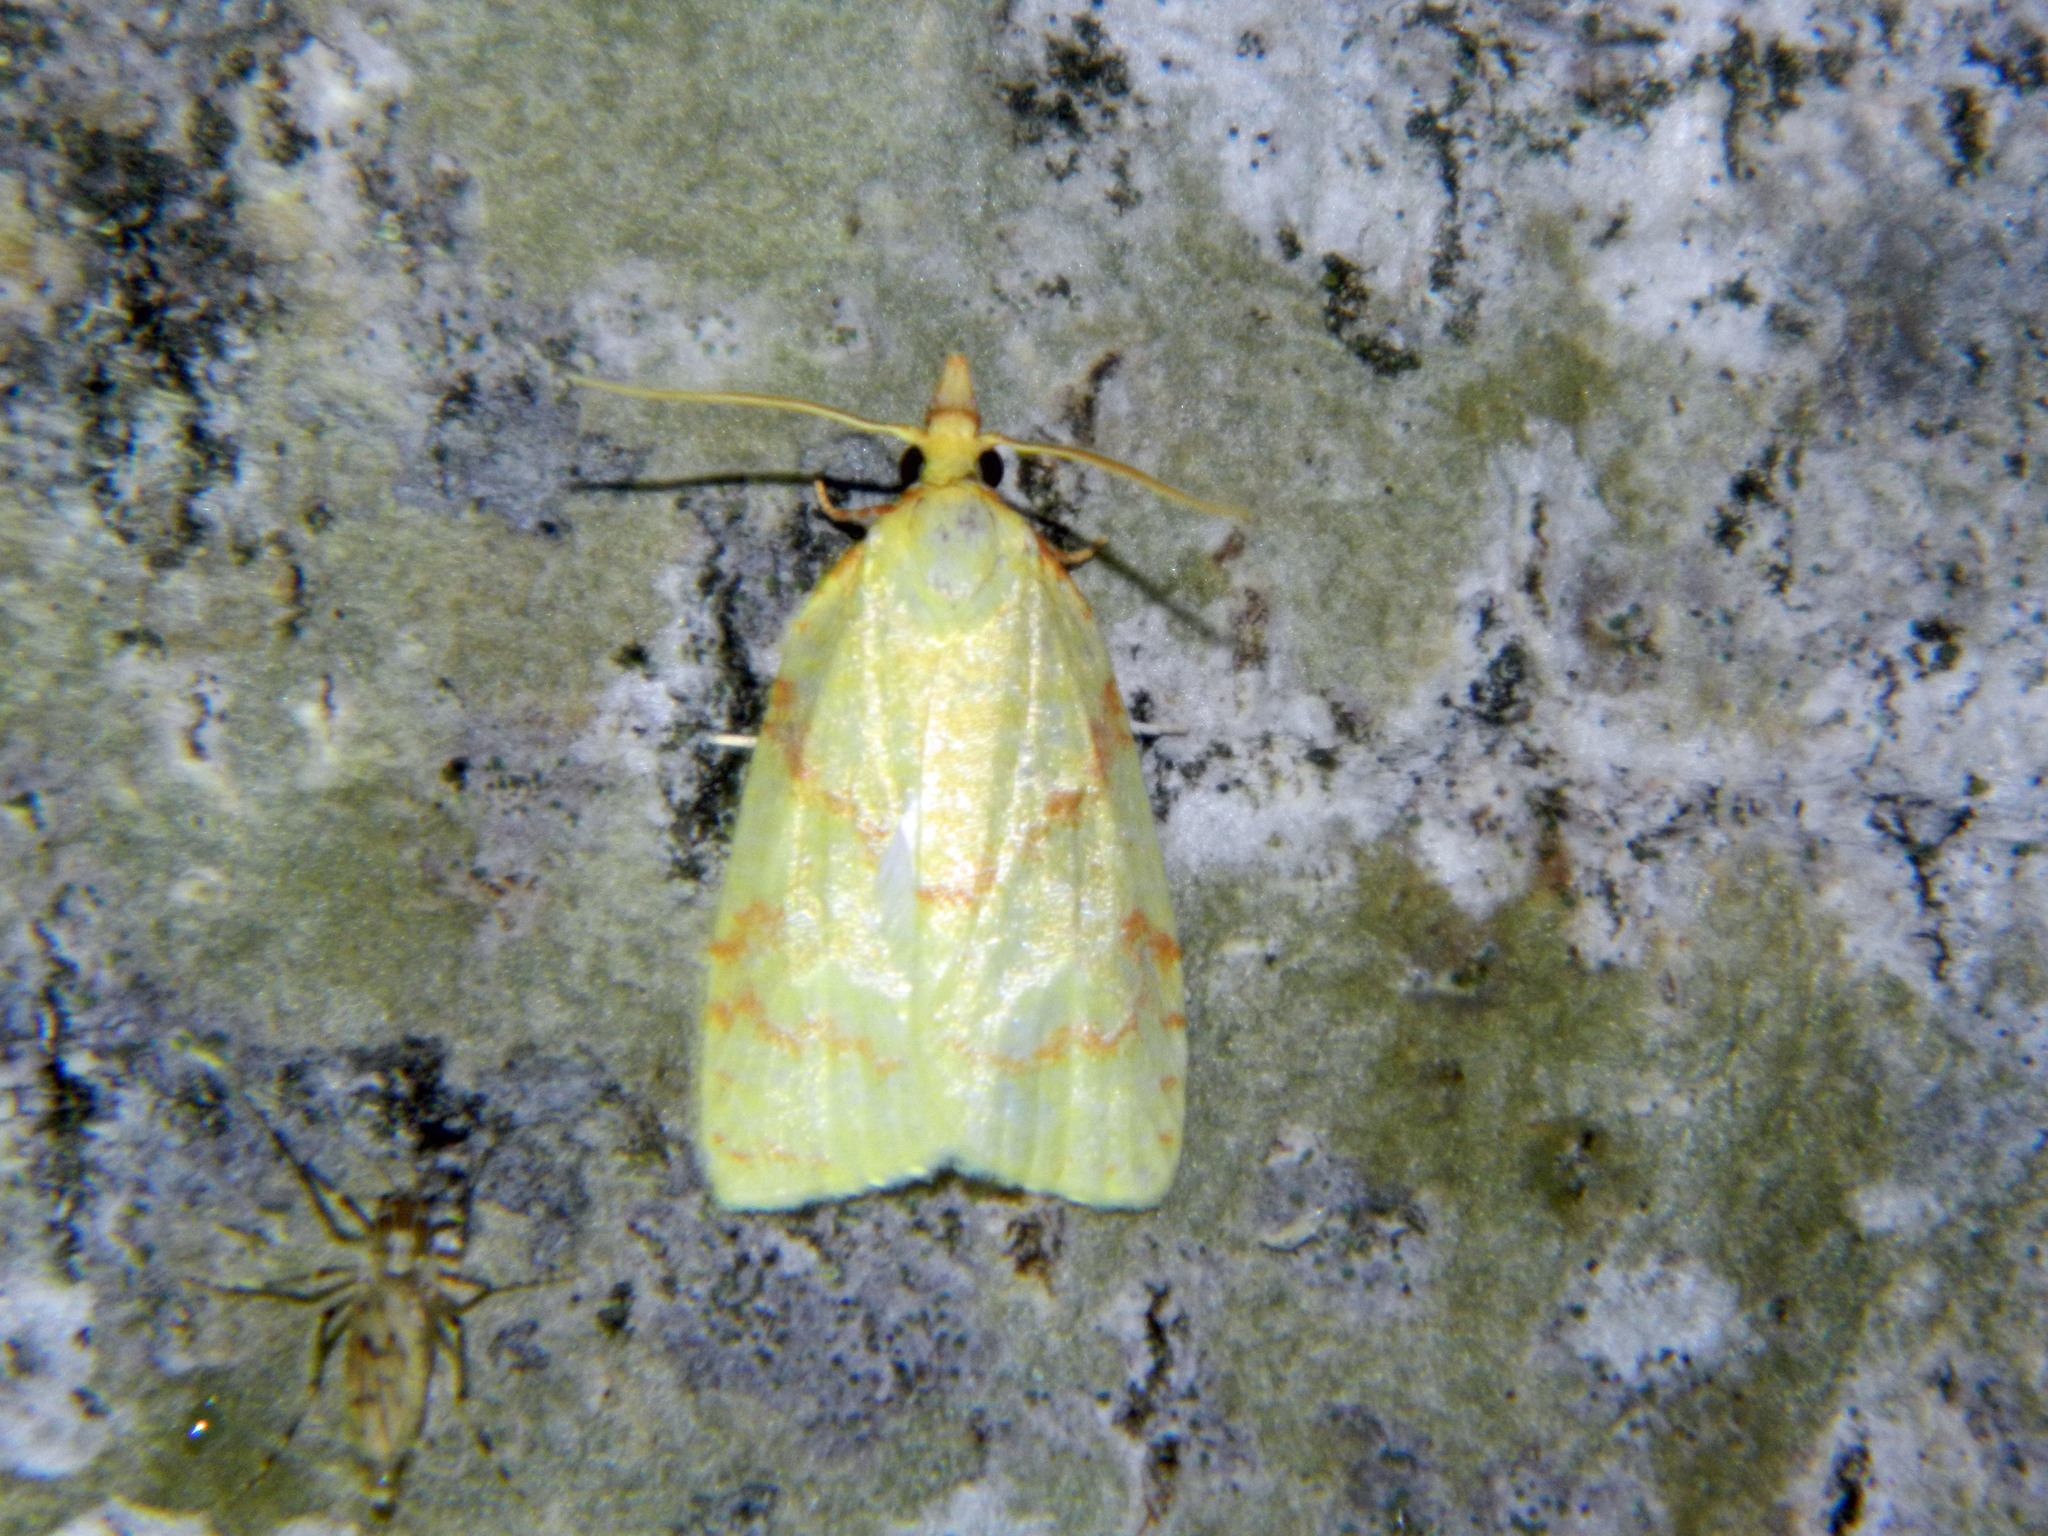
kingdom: Animalia
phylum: Arthropoda
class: Insecta
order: Lepidoptera
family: Tortricidae
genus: Cenopis
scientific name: Cenopis pettitana
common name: Maple-basswood leafroller moth
